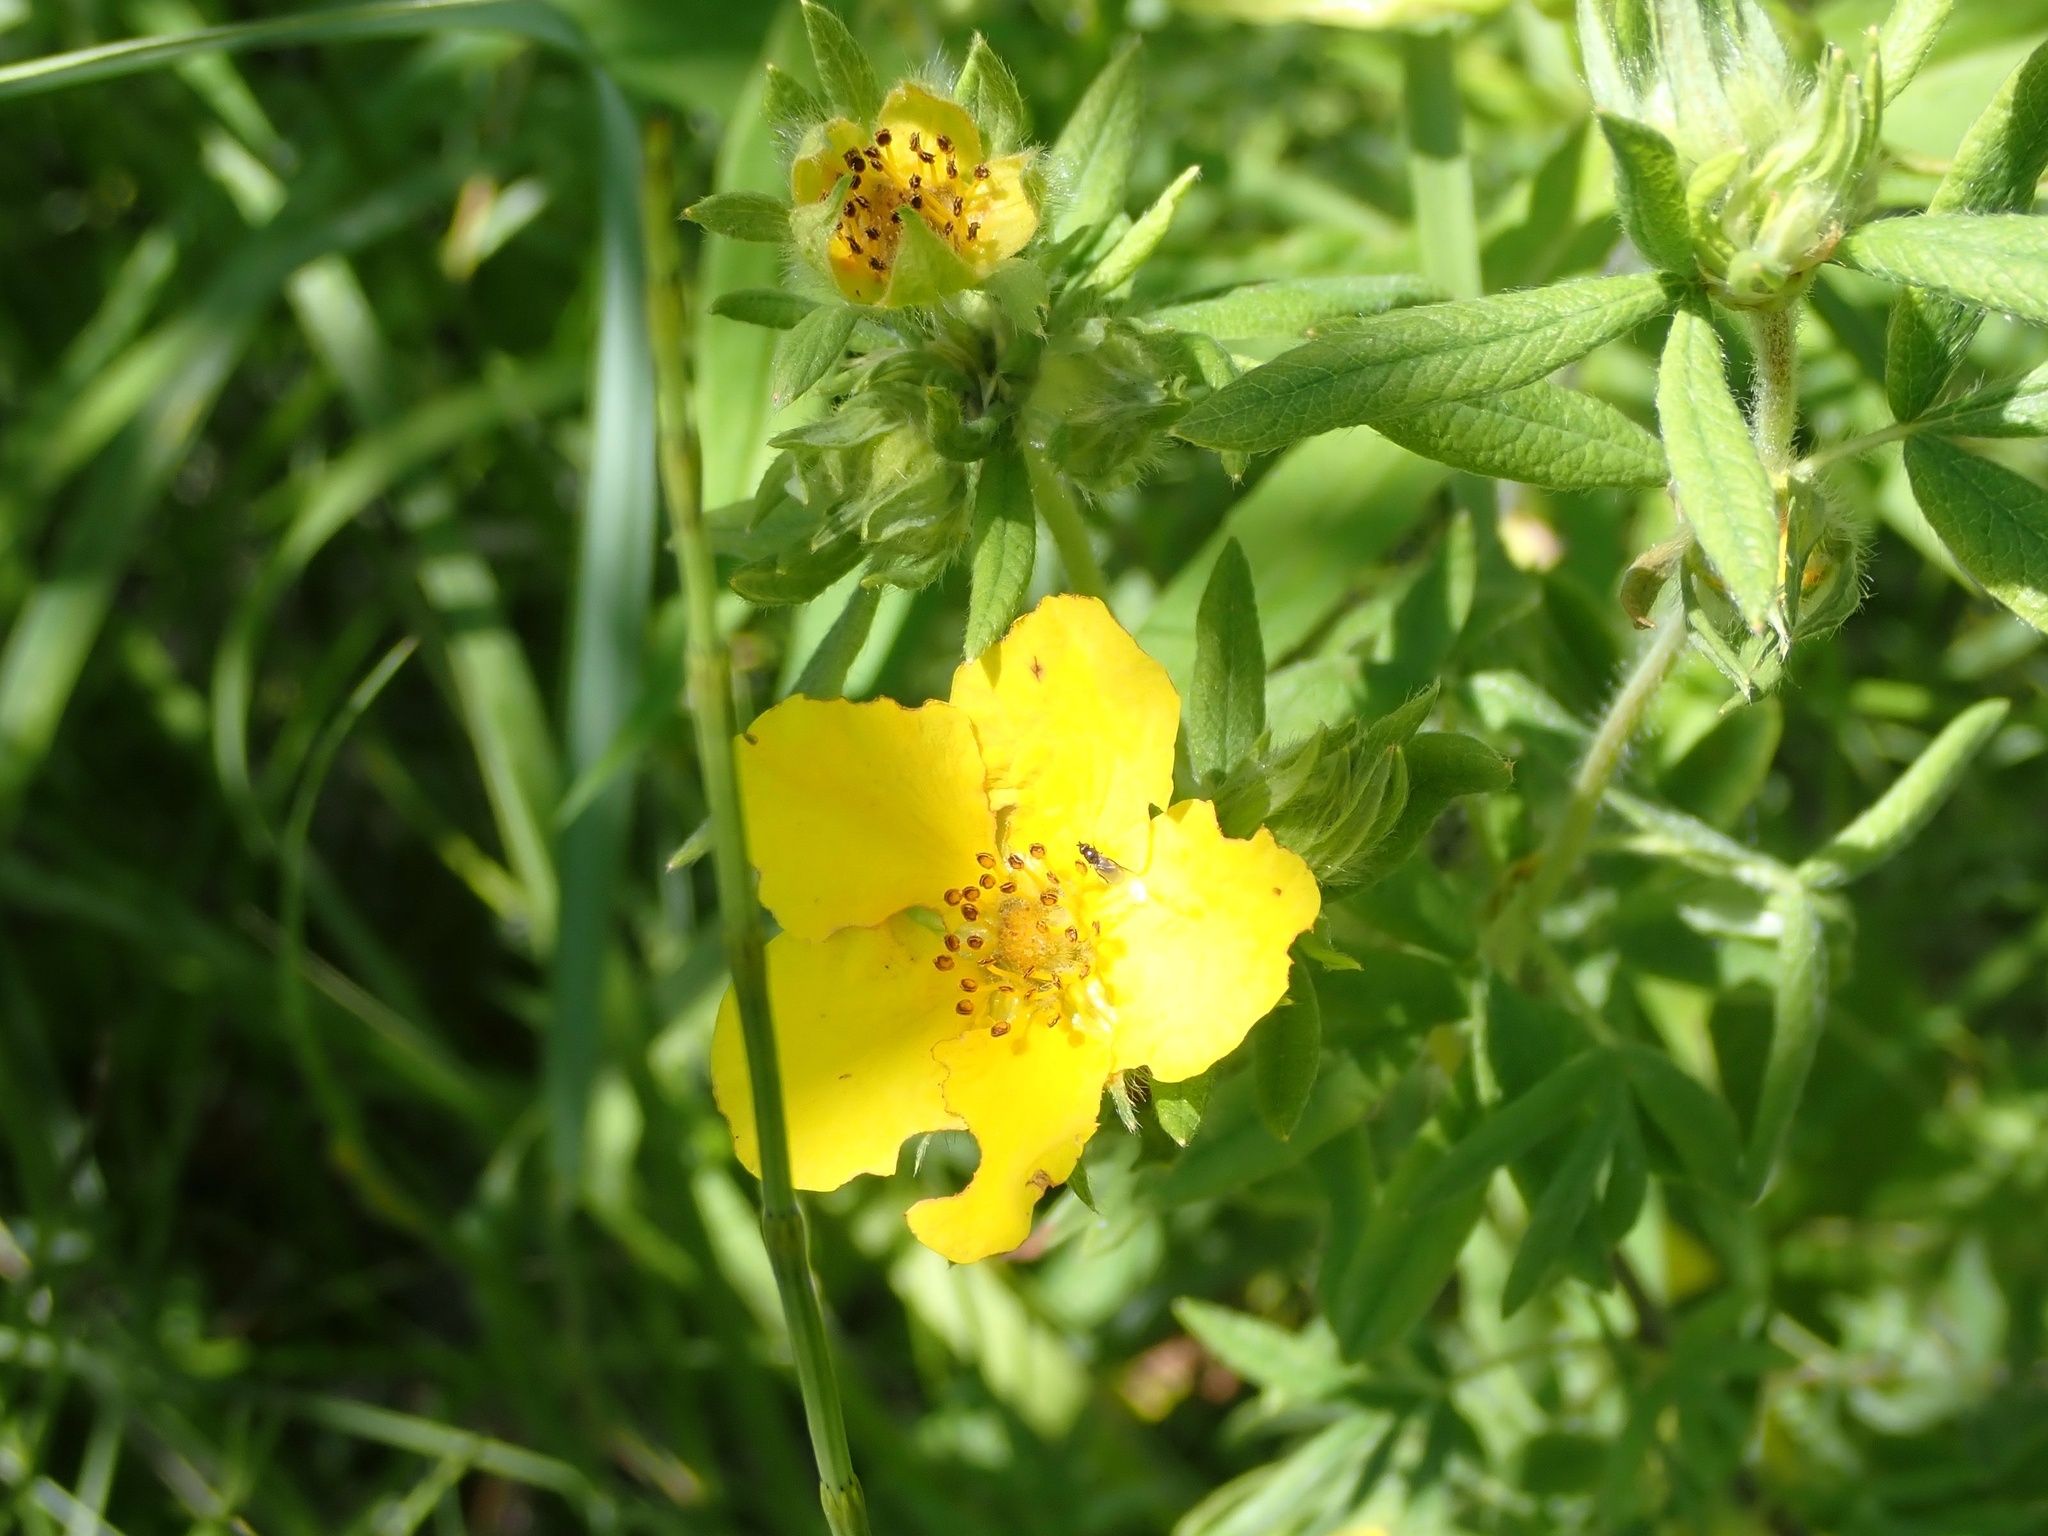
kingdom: Plantae
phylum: Tracheophyta
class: Magnoliopsida
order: Rosales
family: Rosaceae
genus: Dasiphora
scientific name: Dasiphora fruticosa
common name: Shrubby cinquefoil
